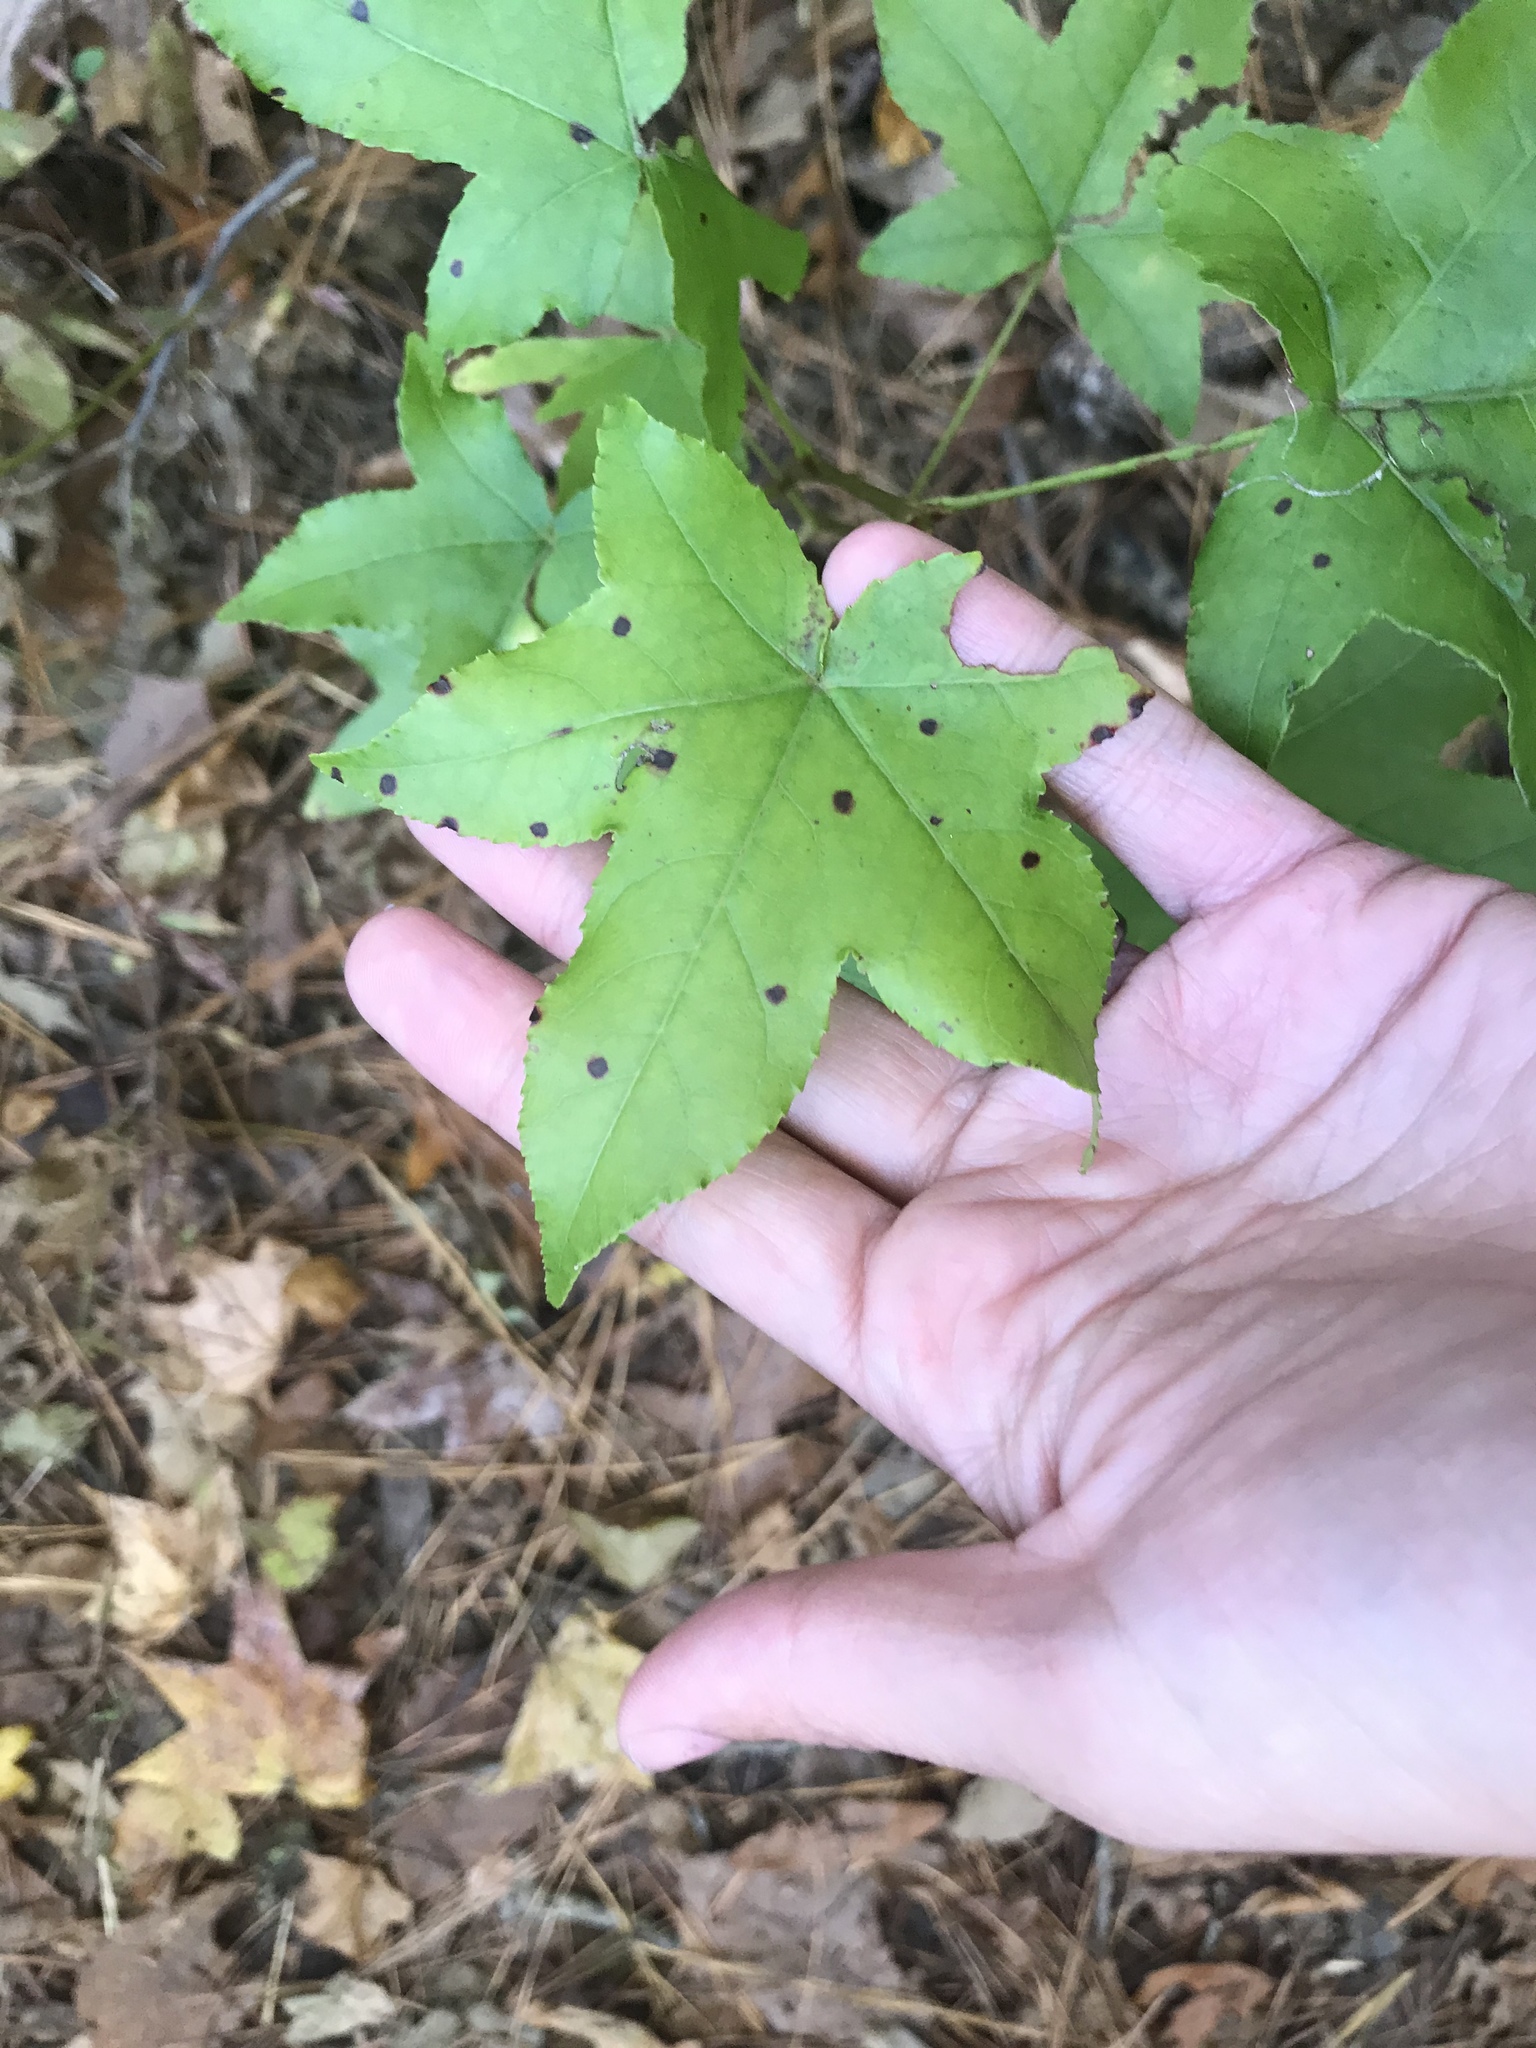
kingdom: Plantae
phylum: Tracheophyta
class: Magnoliopsida
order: Saxifragales
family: Altingiaceae
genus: Liquidambar
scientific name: Liquidambar styraciflua
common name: Sweet gum
